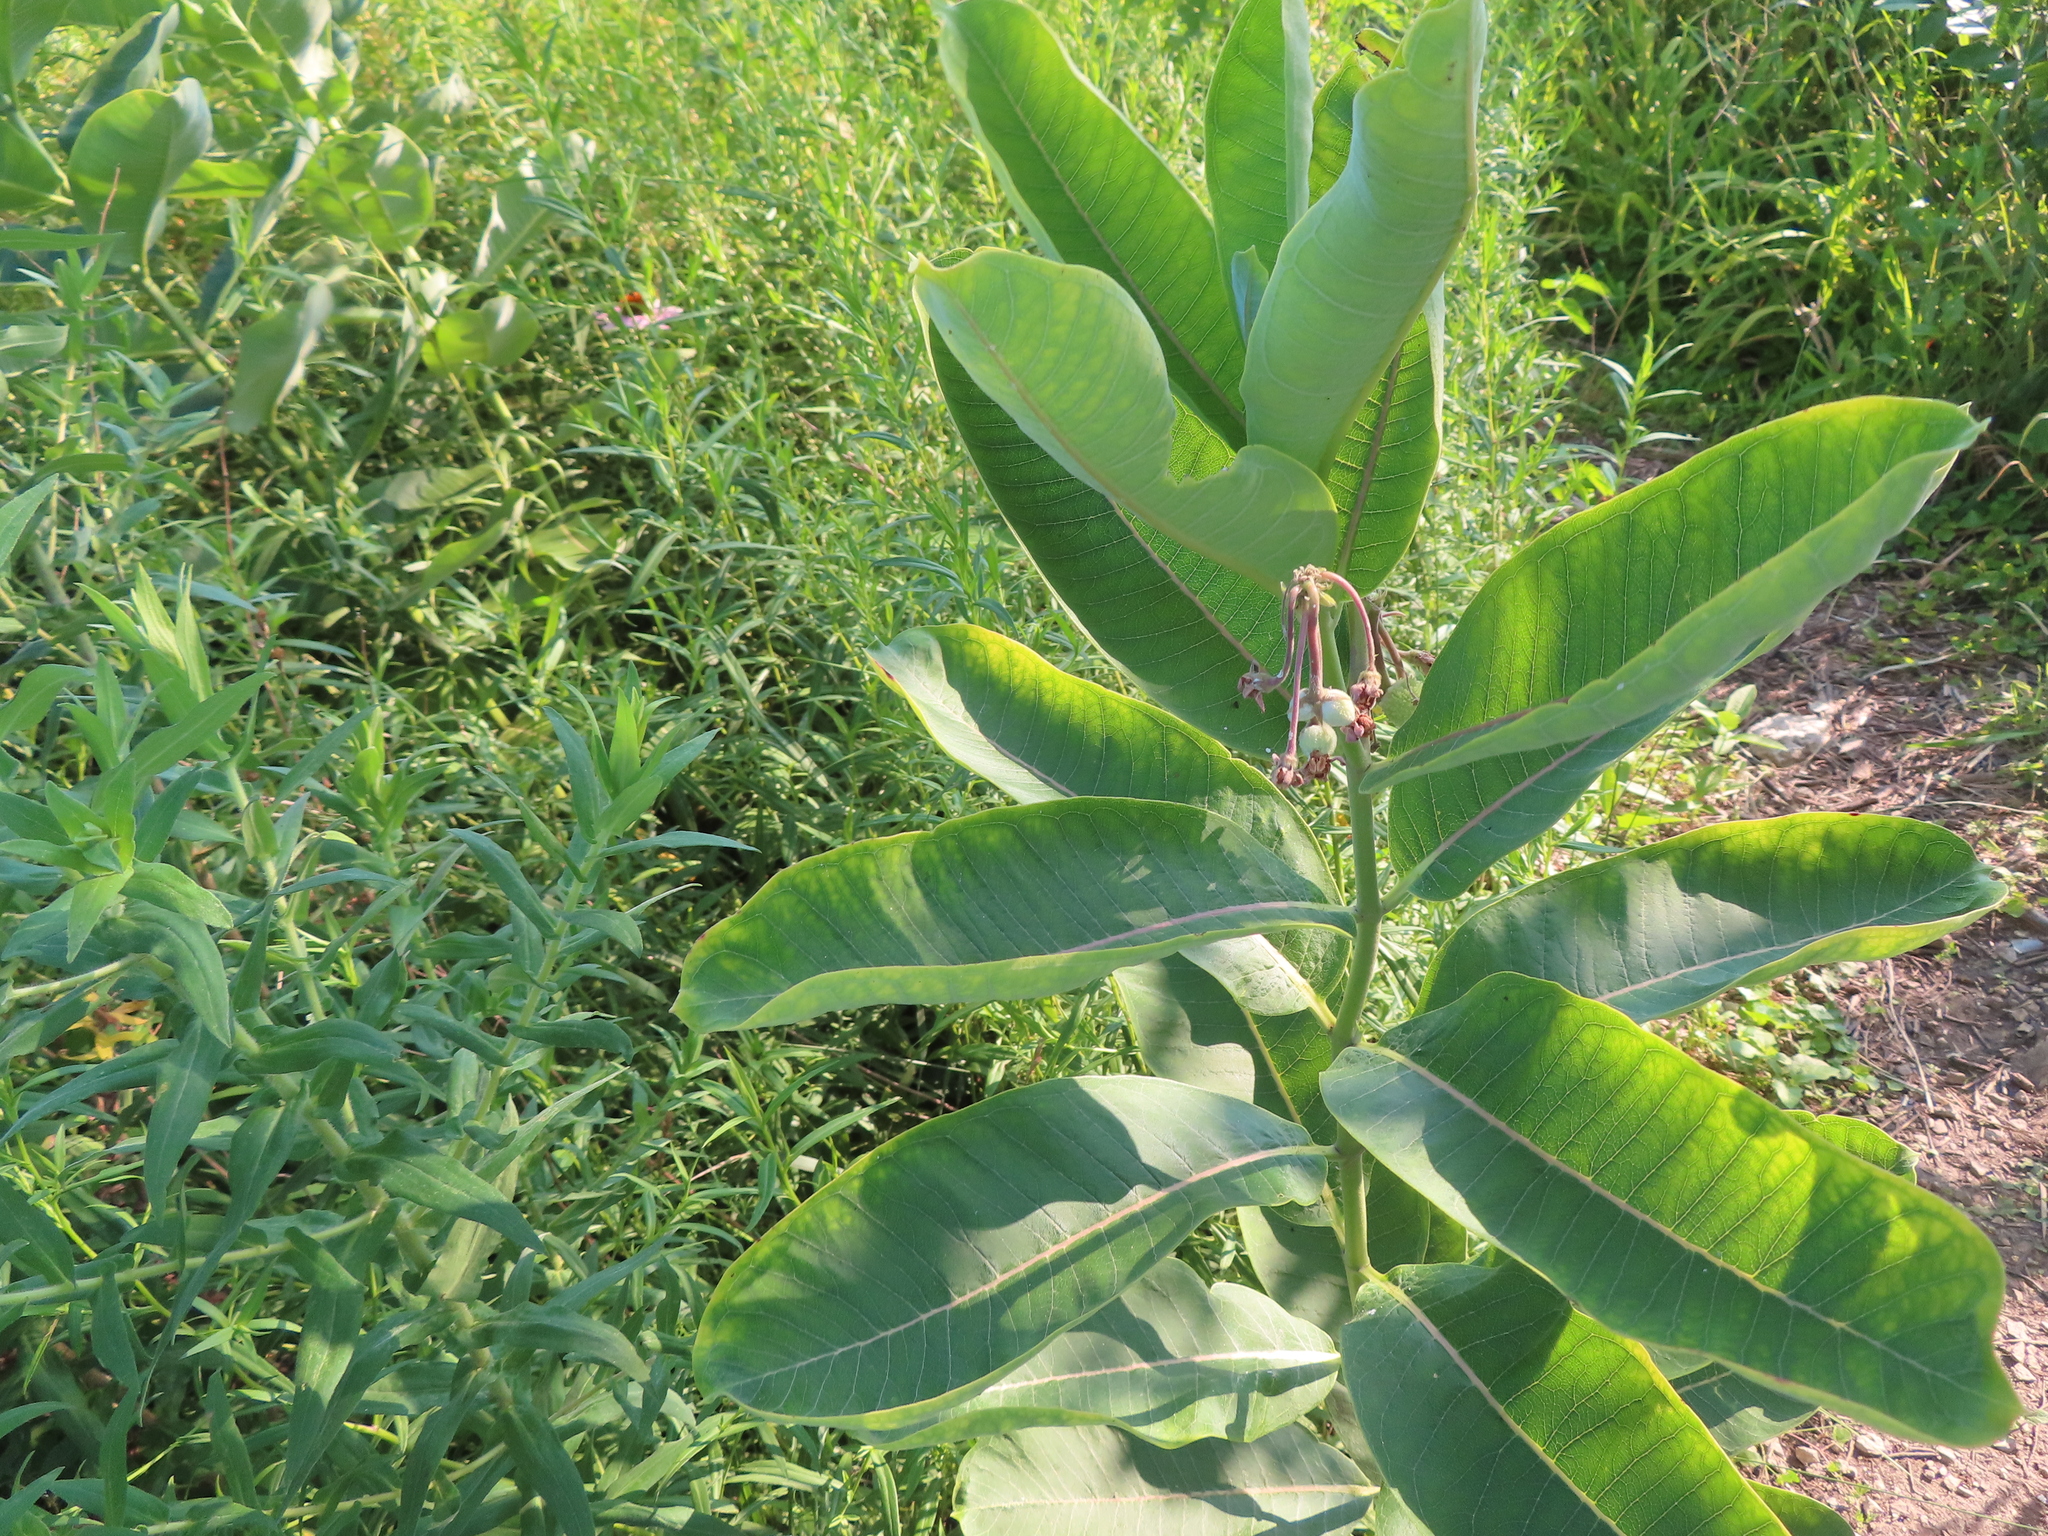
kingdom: Plantae
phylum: Tracheophyta
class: Magnoliopsida
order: Gentianales
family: Apocynaceae
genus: Asclepias
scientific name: Asclepias syriaca
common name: Common milkweed
